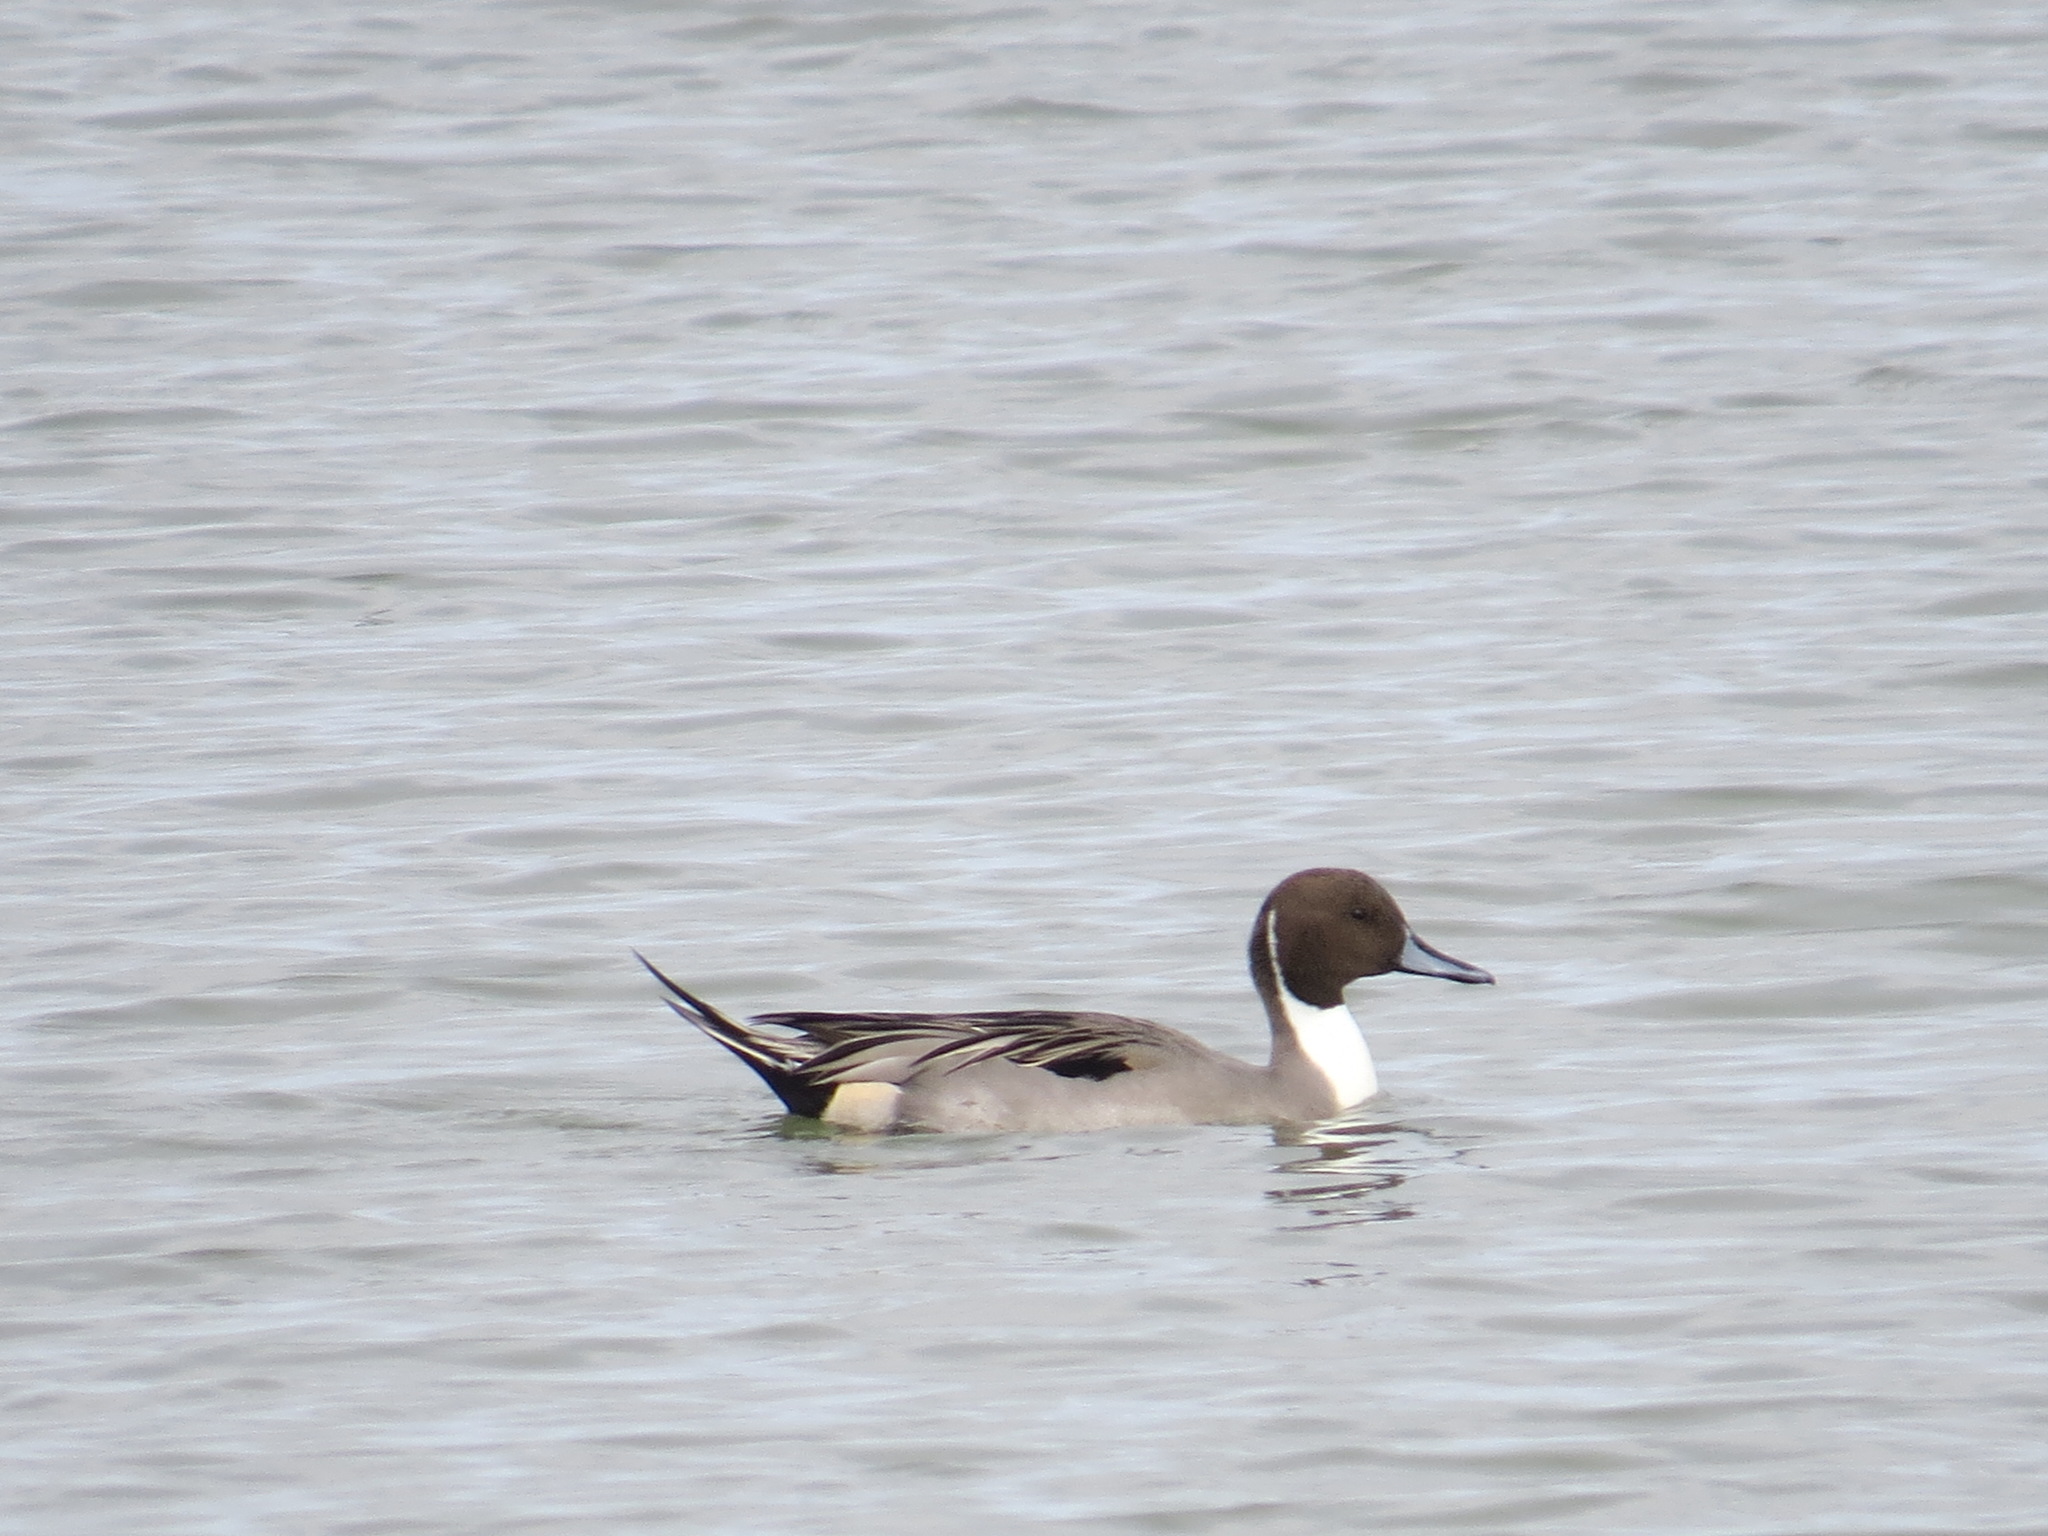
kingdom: Animalia
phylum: Chordata
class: Aves
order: Anseriformes
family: Anatidae
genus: Anas
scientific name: Anas acuta
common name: Northern pintail
